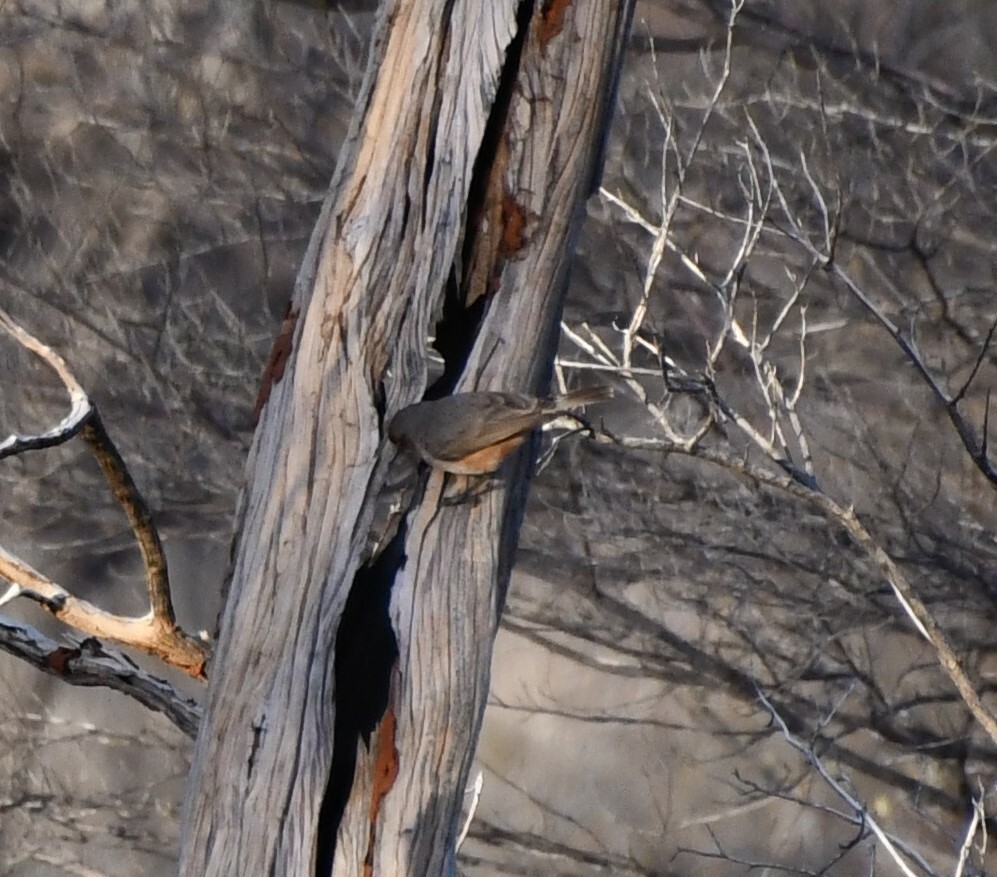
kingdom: Animalia
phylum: Chordata
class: Aves
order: Passeriformes
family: Acanthizidae
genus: Acanthiza
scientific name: Acanthiza uropygialis
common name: Chestnut-rumped thornbill
